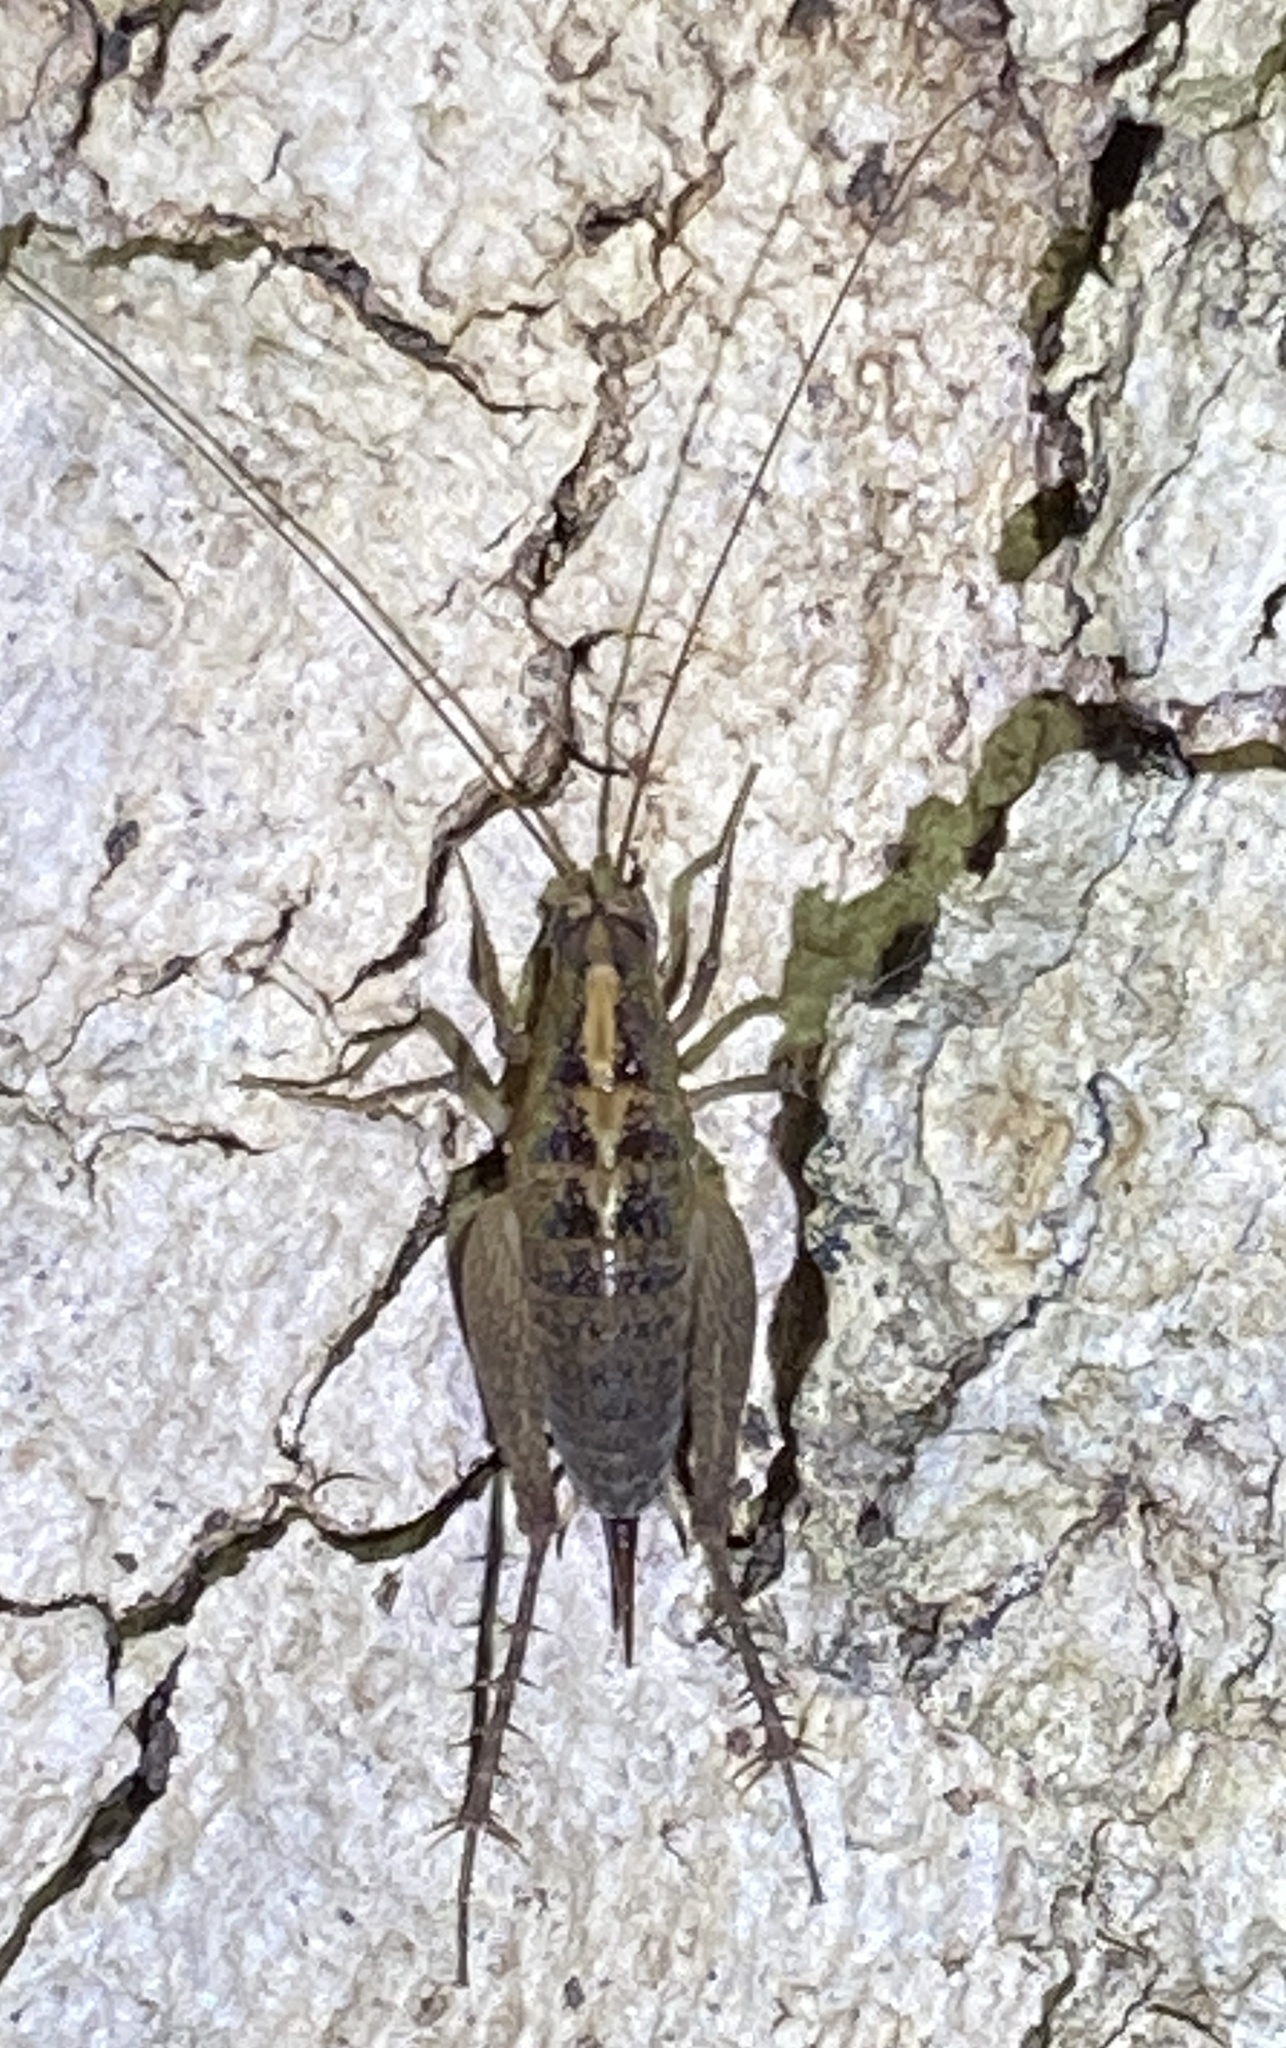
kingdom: Animalia
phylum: Arthropoda
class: Insecta
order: Orthoptera
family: Rhaphidophoridae
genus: Pristoceuthophilus
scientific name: Pristoceuthophilus
